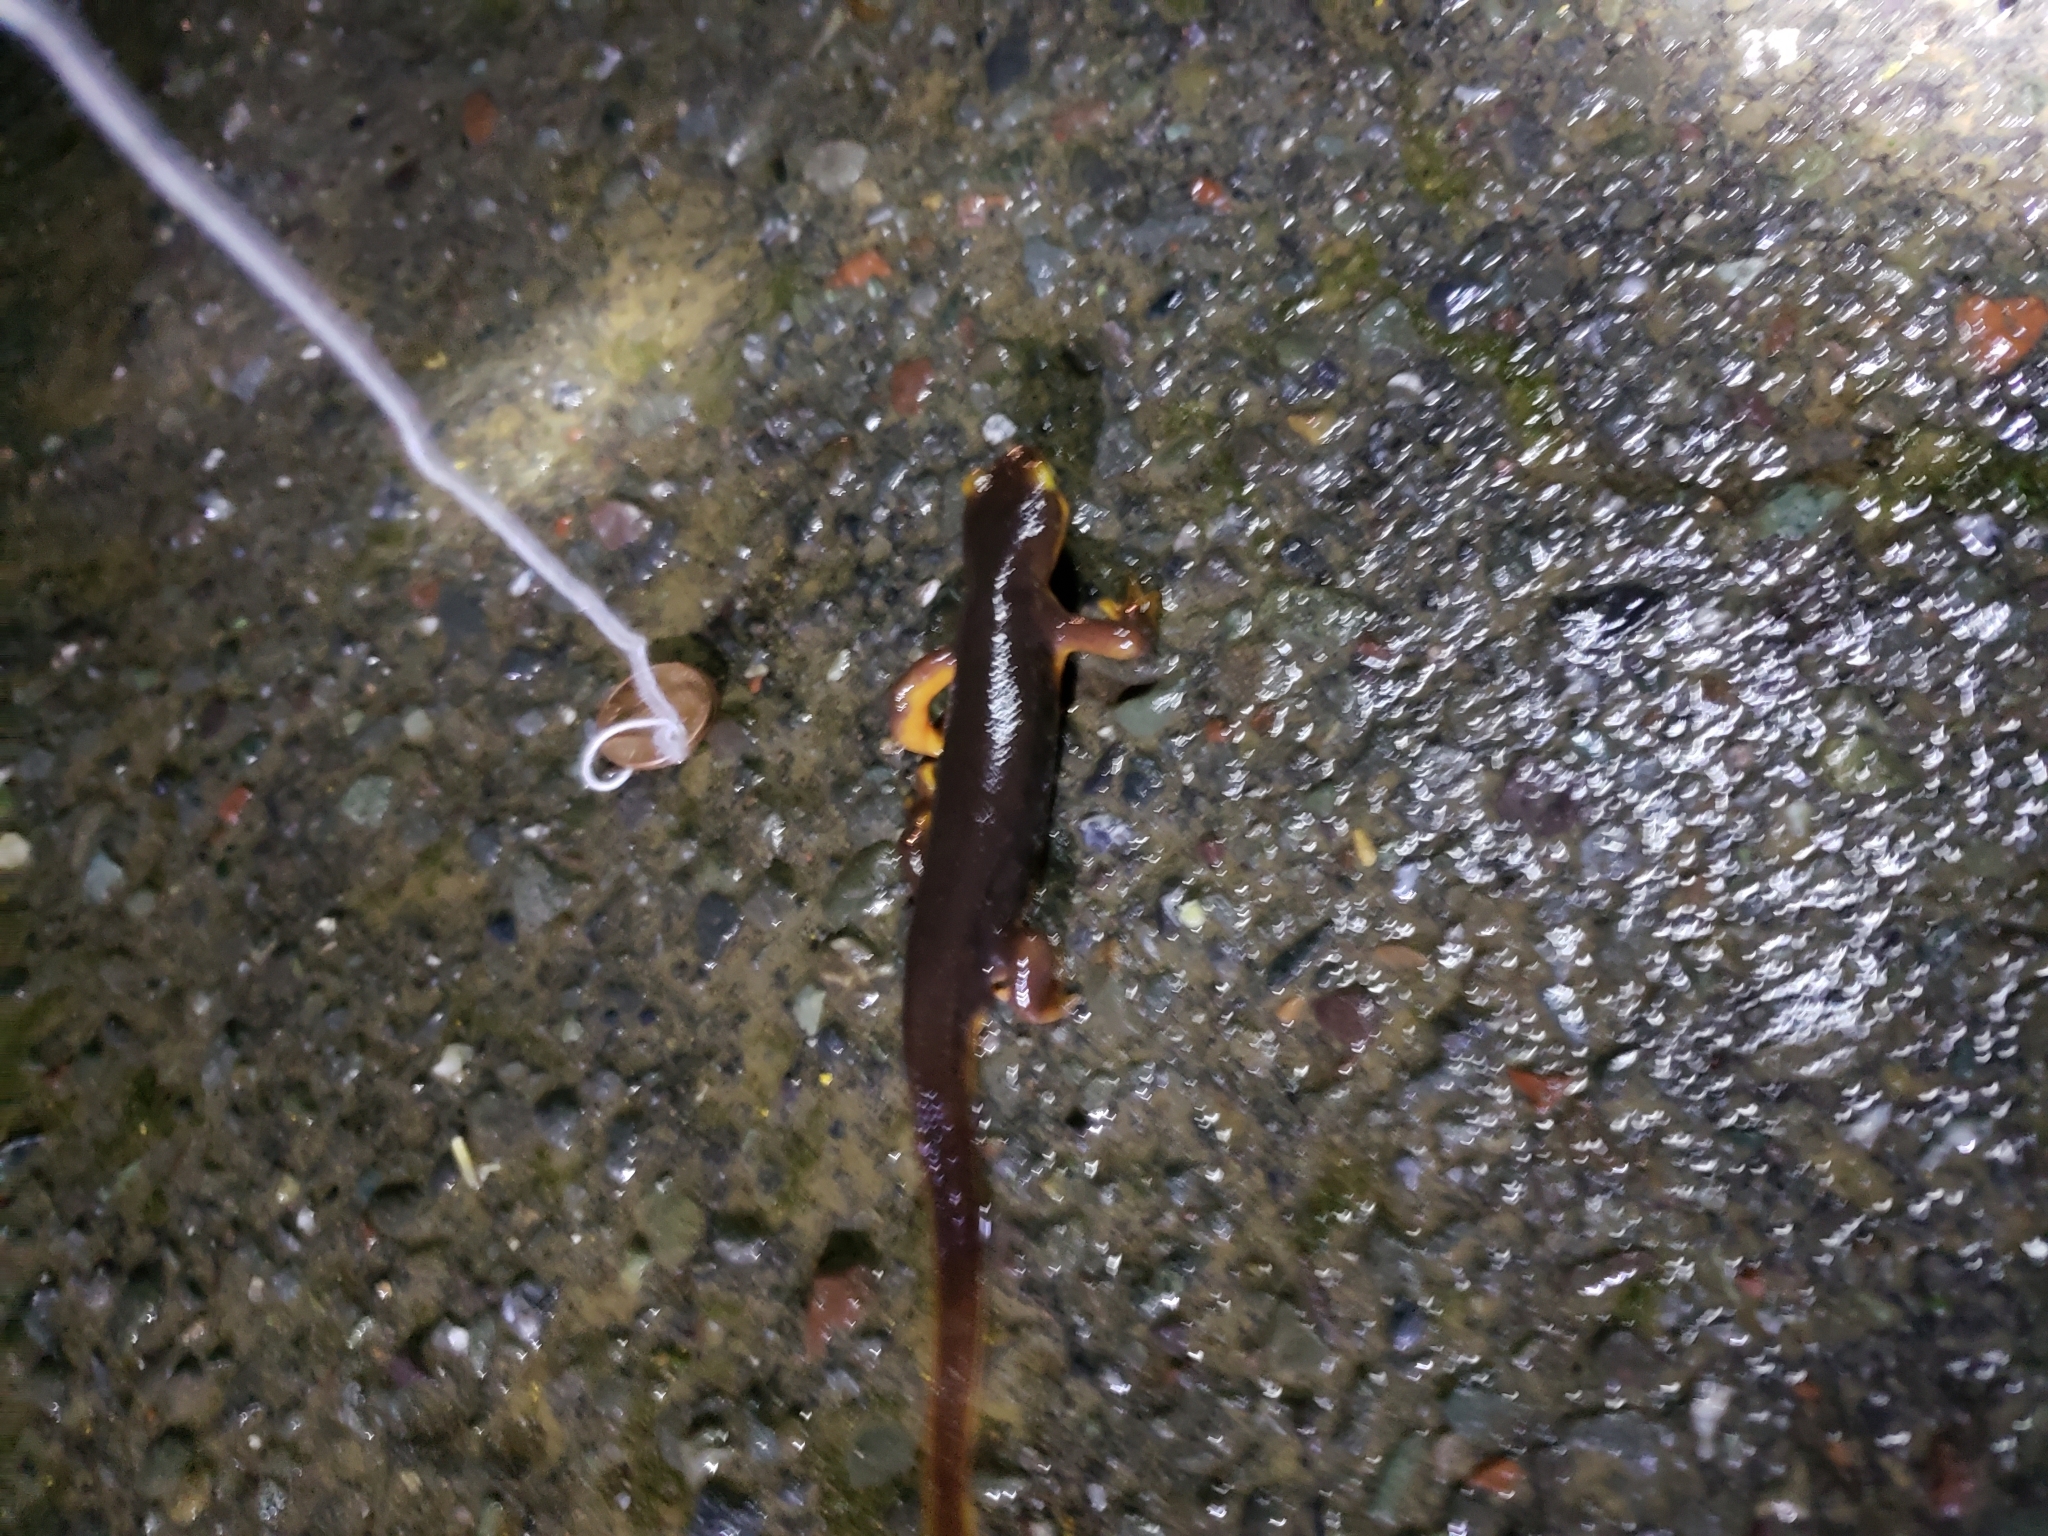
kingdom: Animalia
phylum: Chordata
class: Amphibia
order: Caudata
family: Salamandridae
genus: Taricha
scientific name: Taricha torosa
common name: California newt
